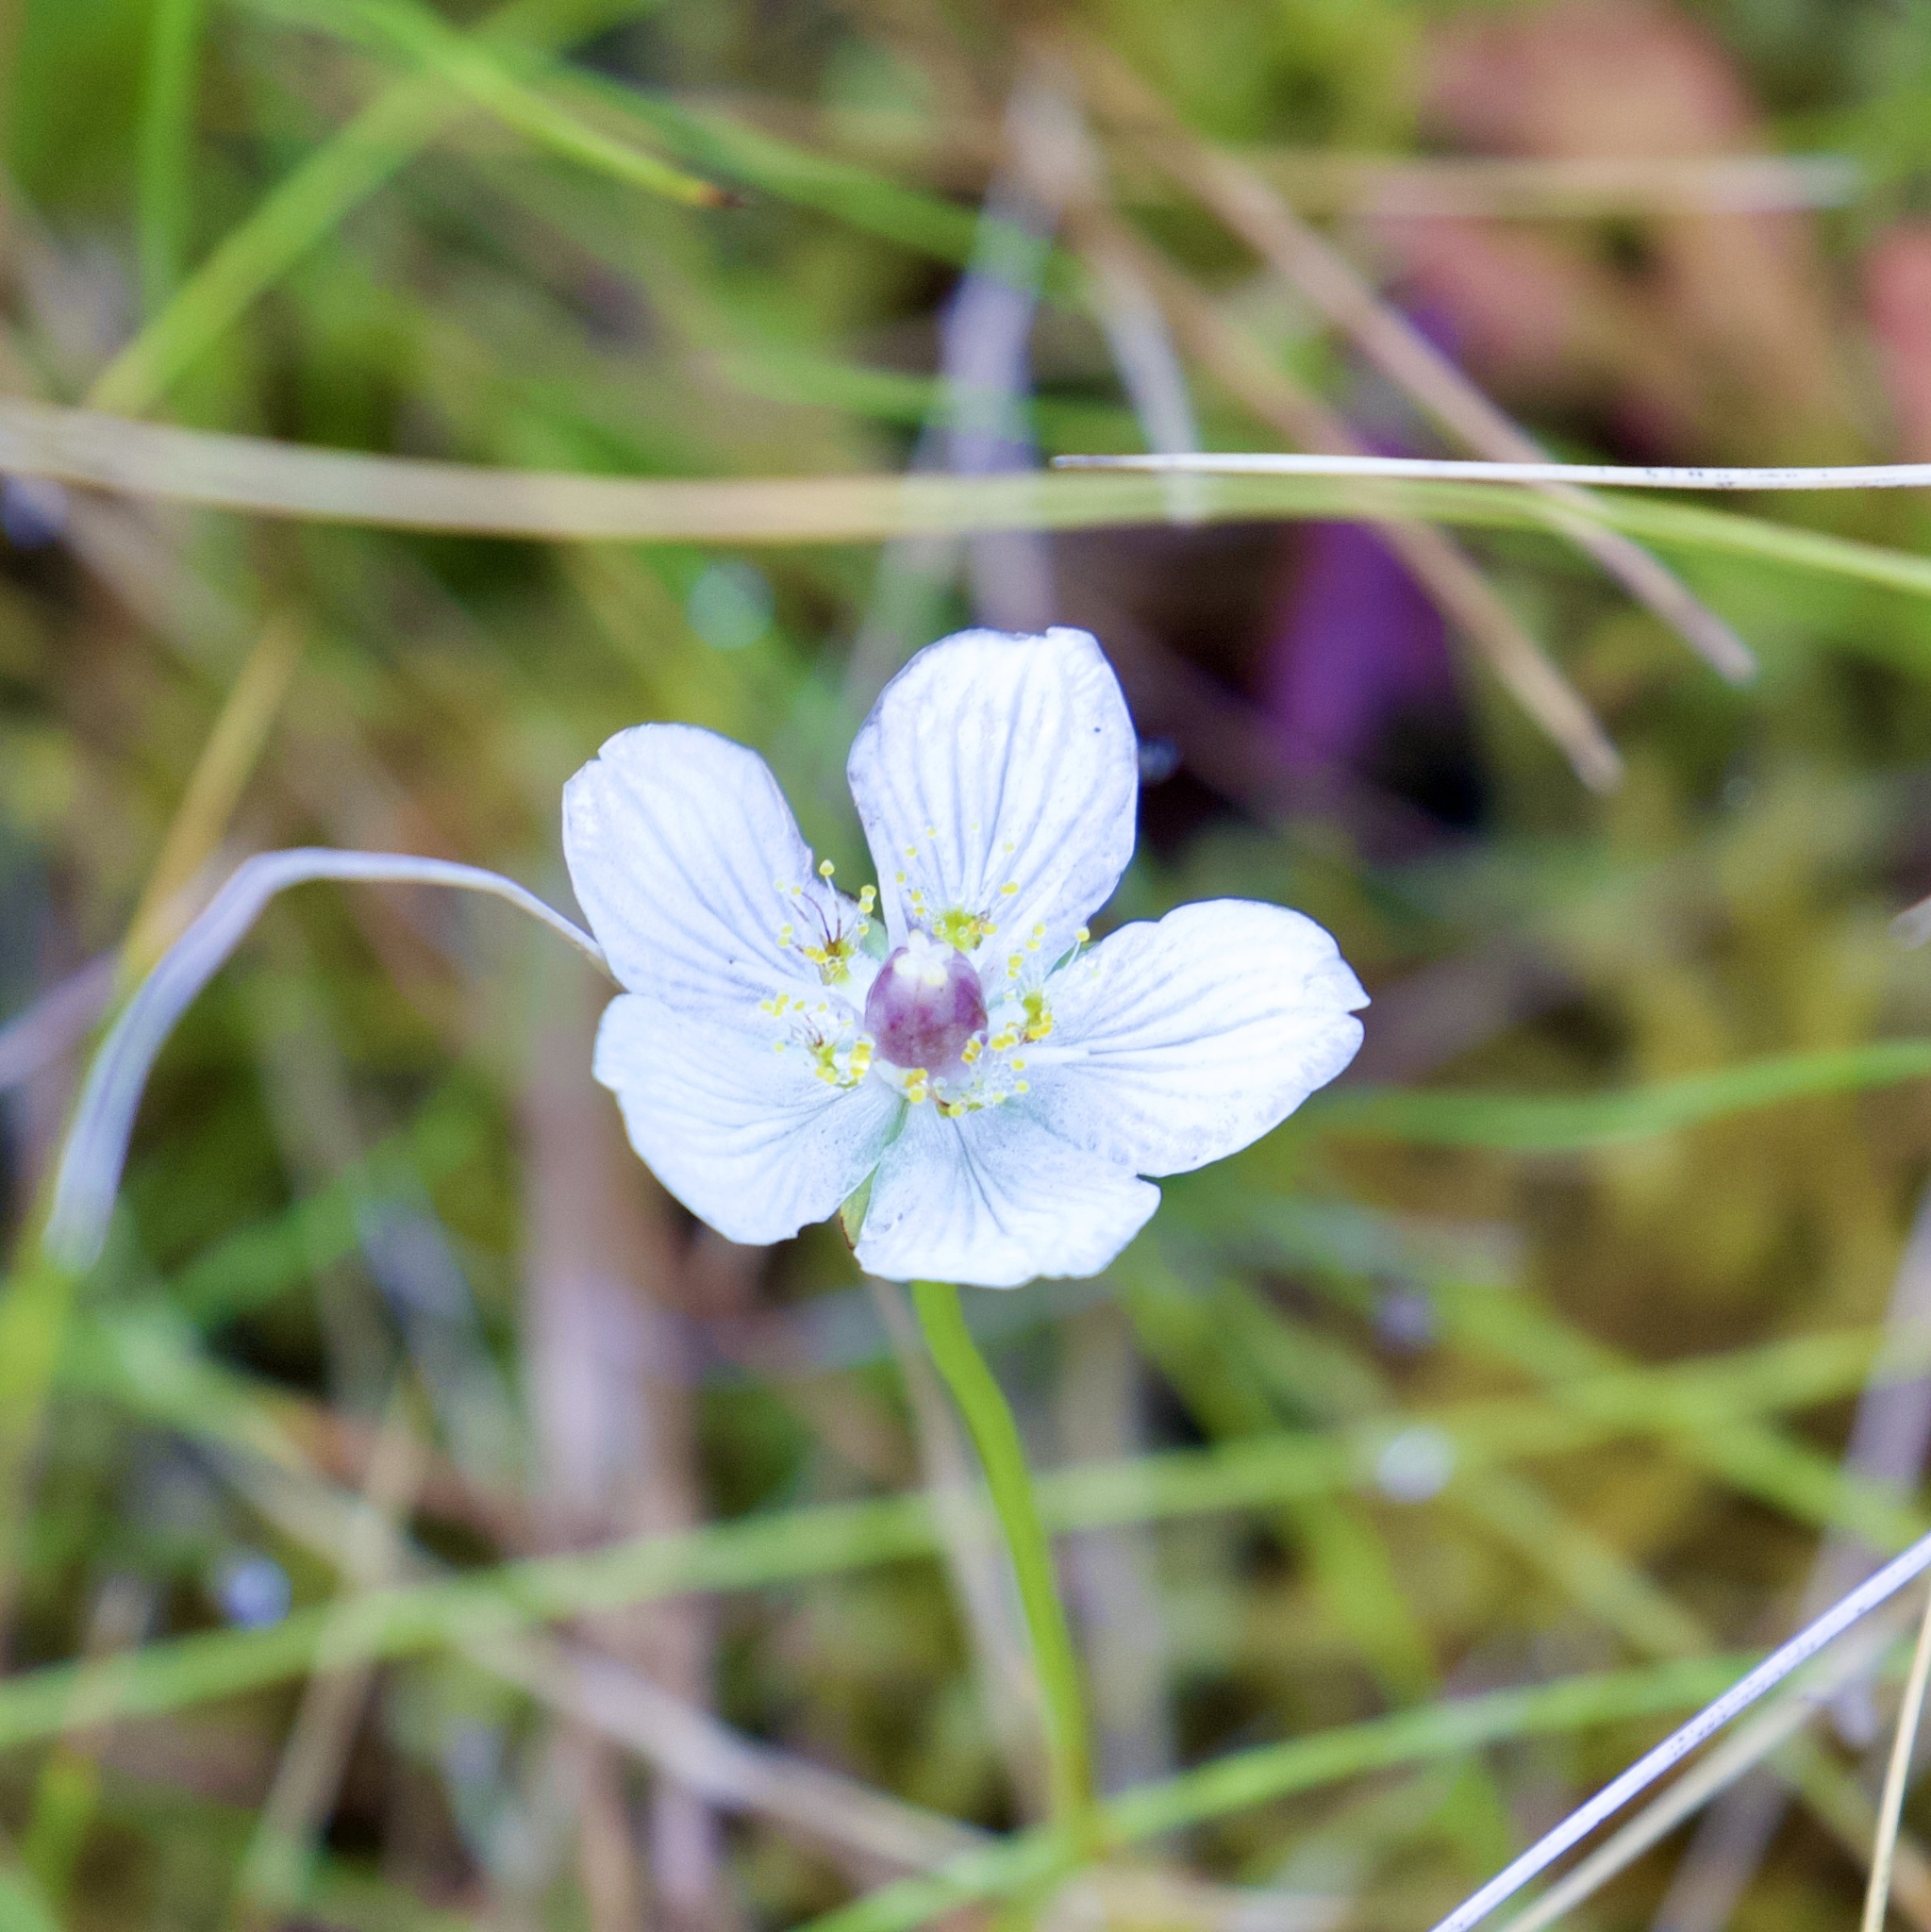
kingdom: Plantae
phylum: Tracheophyta
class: Magnoliopsida
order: Celastrales
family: Parnassiaceae
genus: Parnassia
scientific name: Parnassia palustris
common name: Grass-of-parnassus
